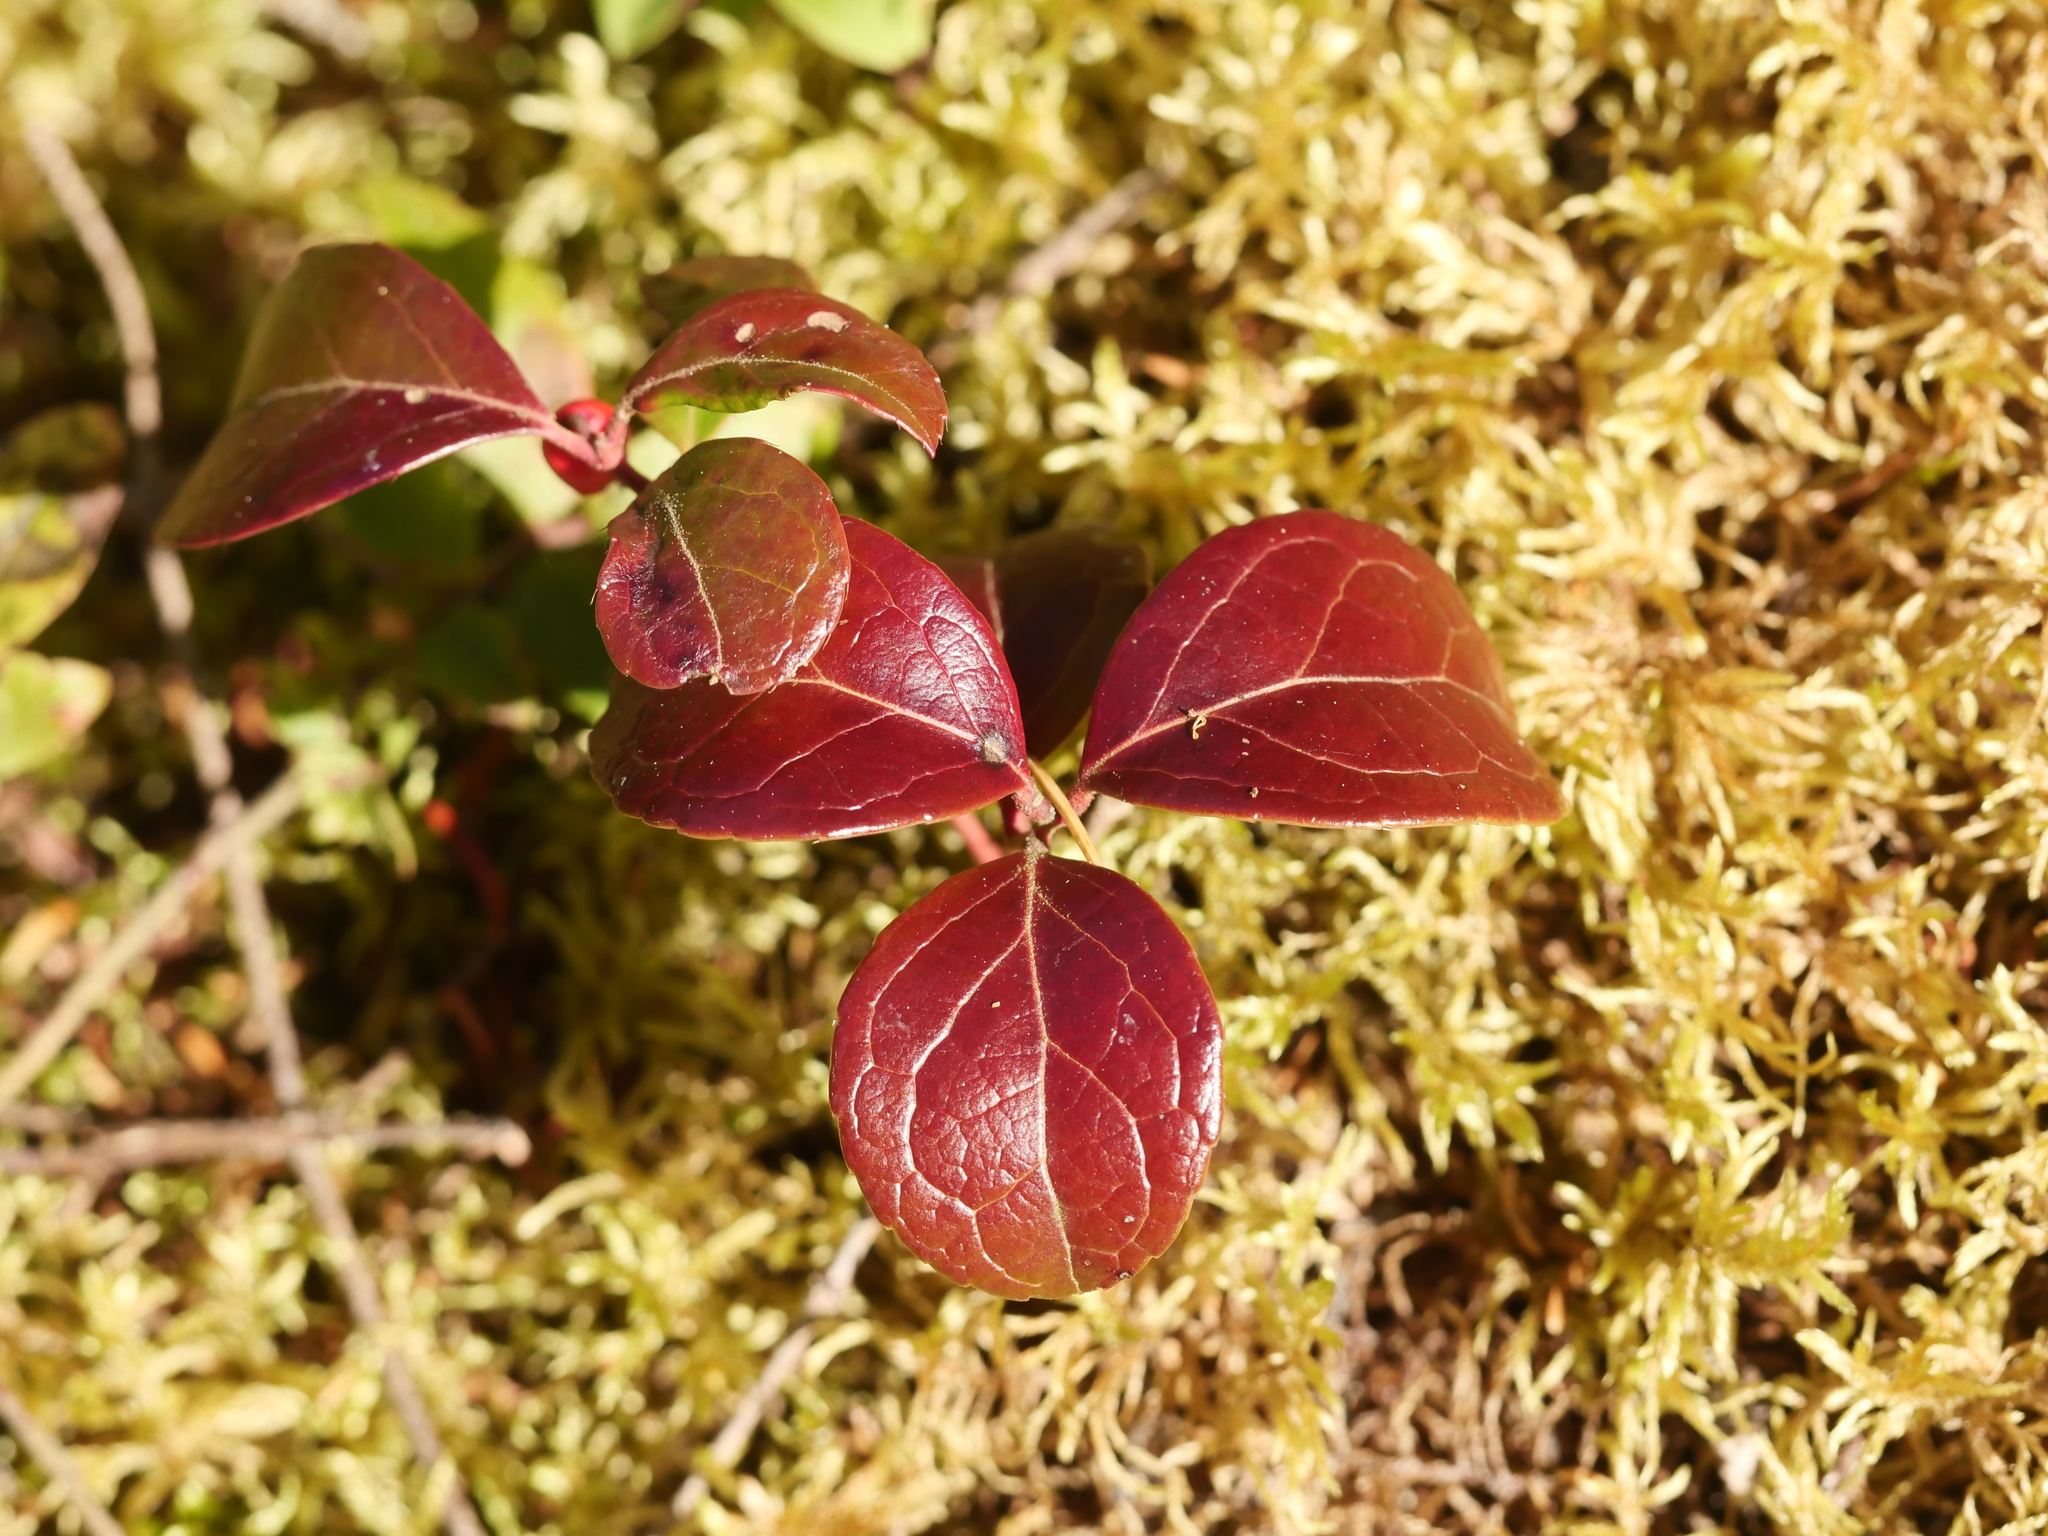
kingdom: Plantae
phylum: Tracheophyta
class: Magnoliopsida
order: Ericales
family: Ericaceae
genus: Gaultheria
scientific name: Gaultheria procumbens
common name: Checkerberry
